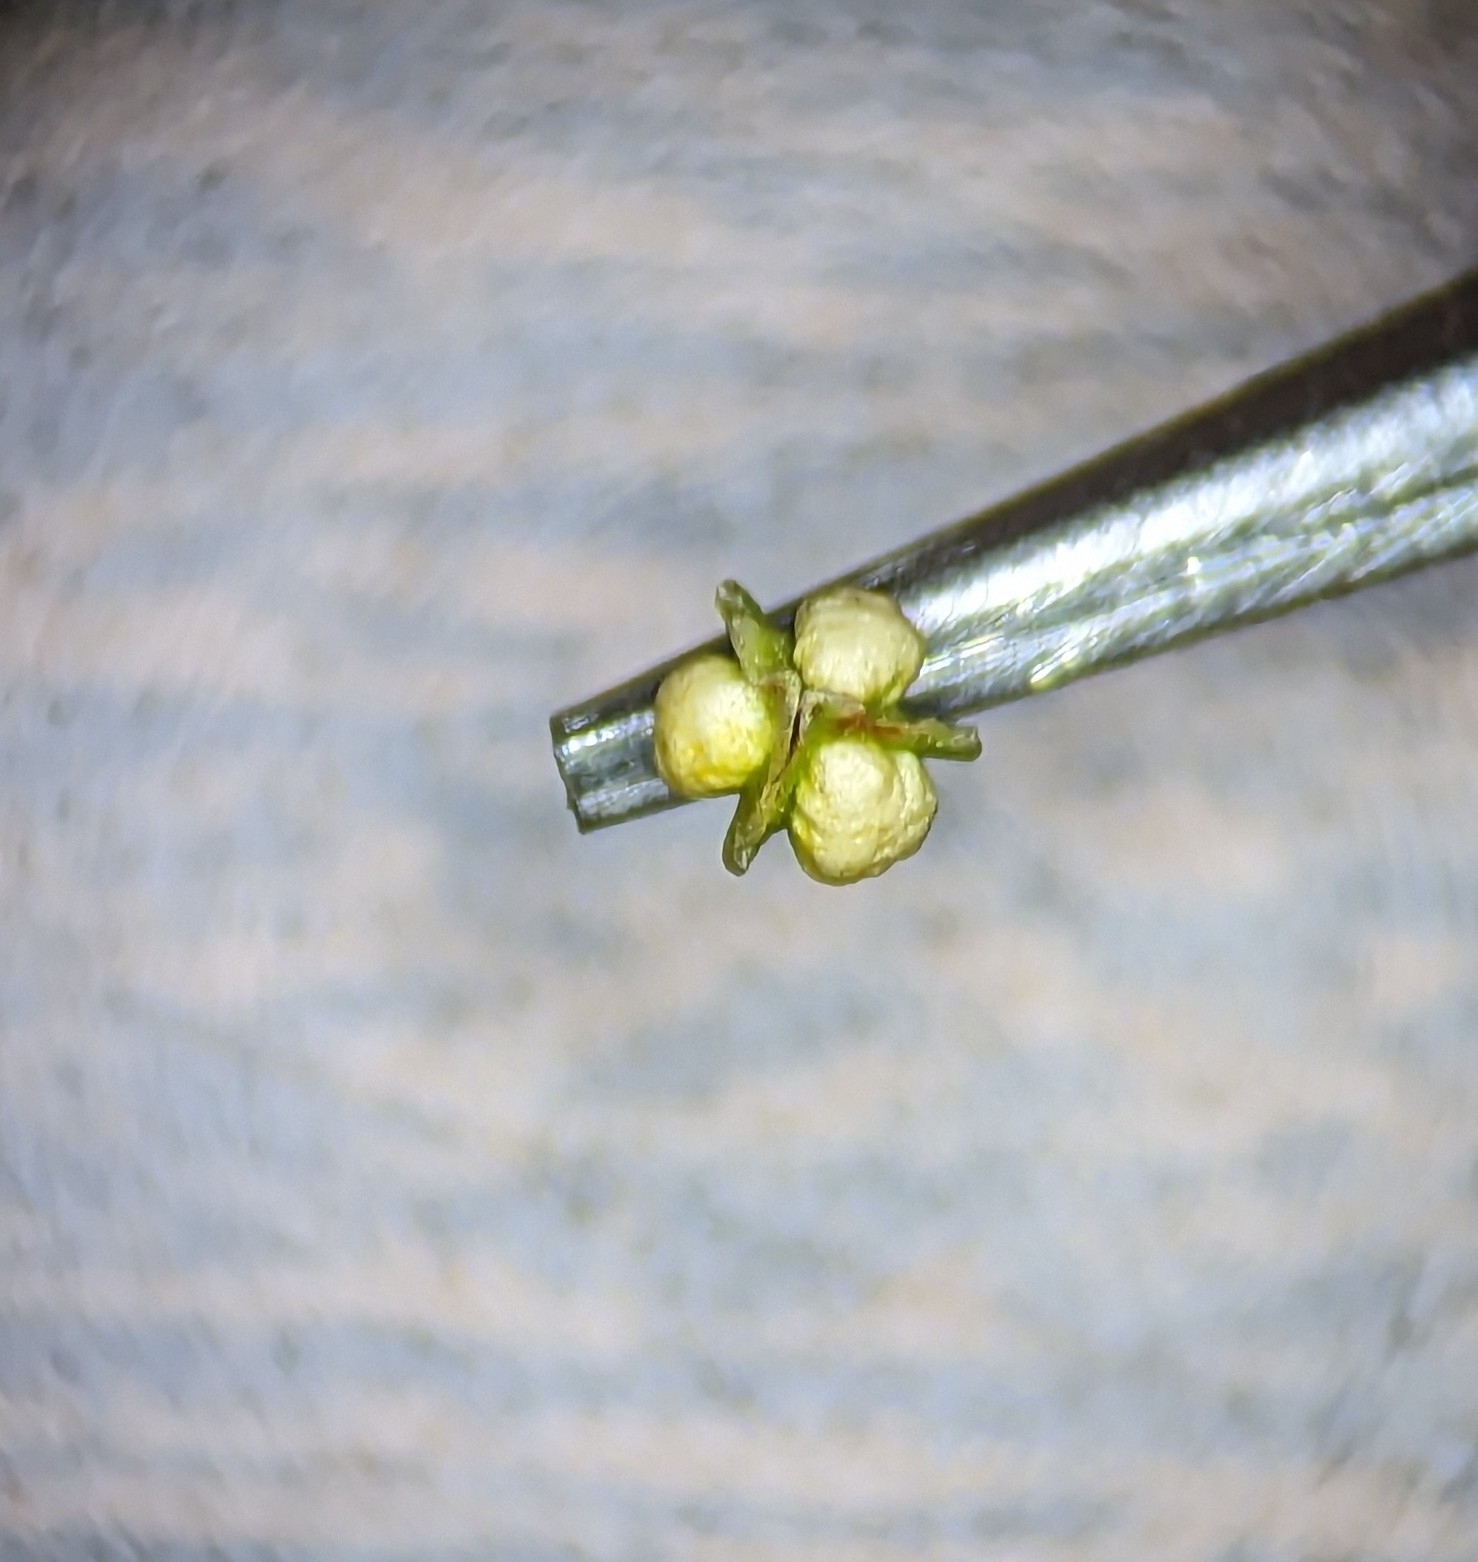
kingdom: Plantae
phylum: Tracheophyta
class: Magnoliopsida
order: Caryophyllales
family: Polygonaceae
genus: Rumex
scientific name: Rumex triangulivalvis
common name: Triangular-valve dock
